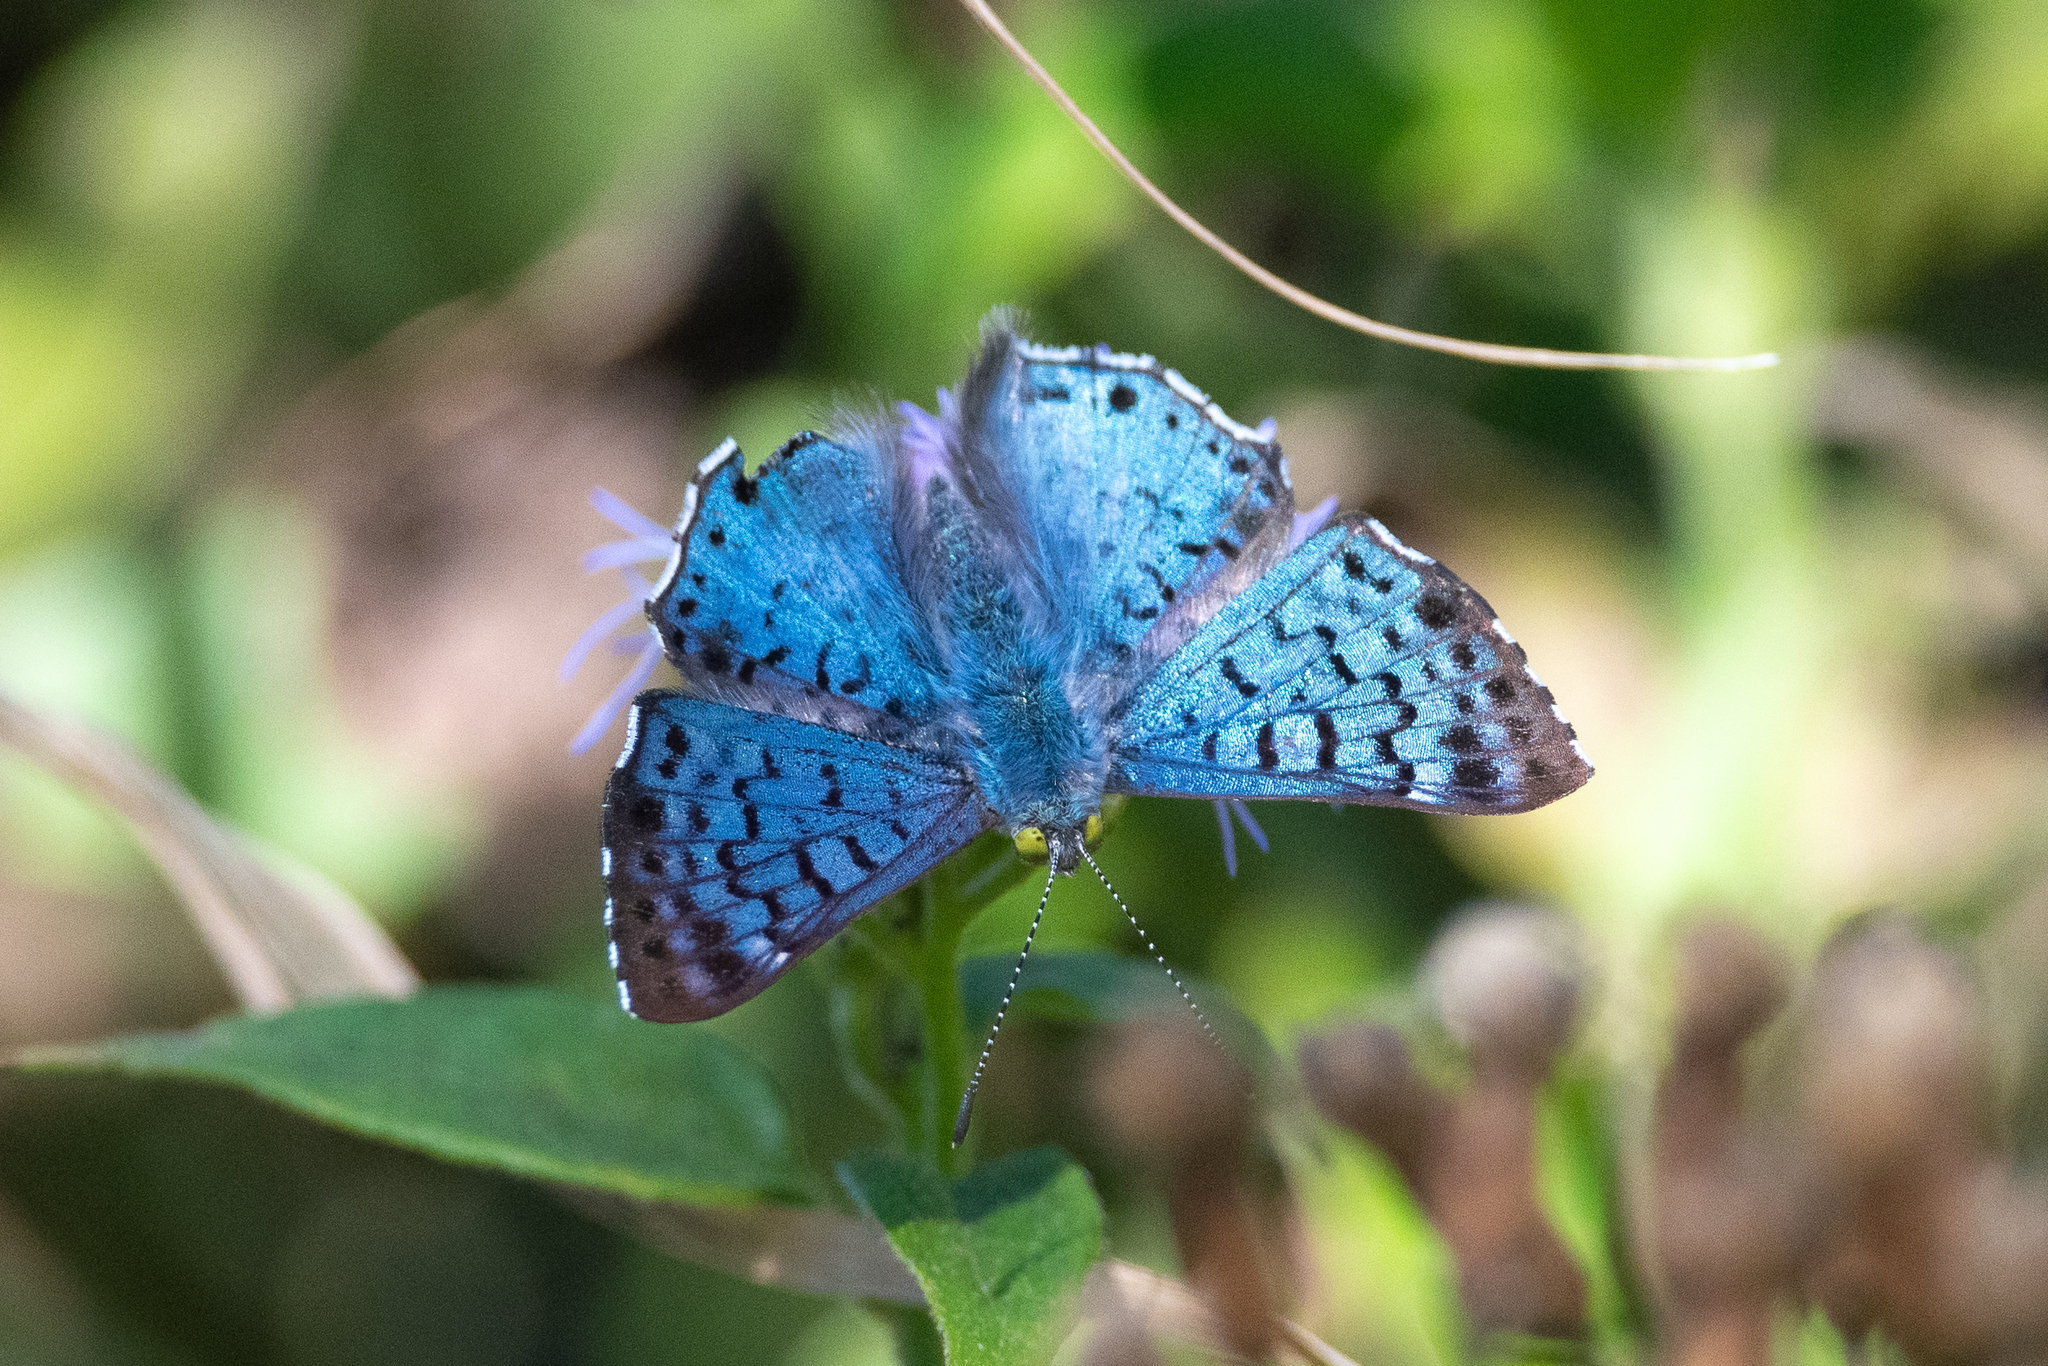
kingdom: Animalia
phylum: Arthropoda
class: Insecta
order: Lepidoptera
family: Riodinidae
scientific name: Riodinidae
